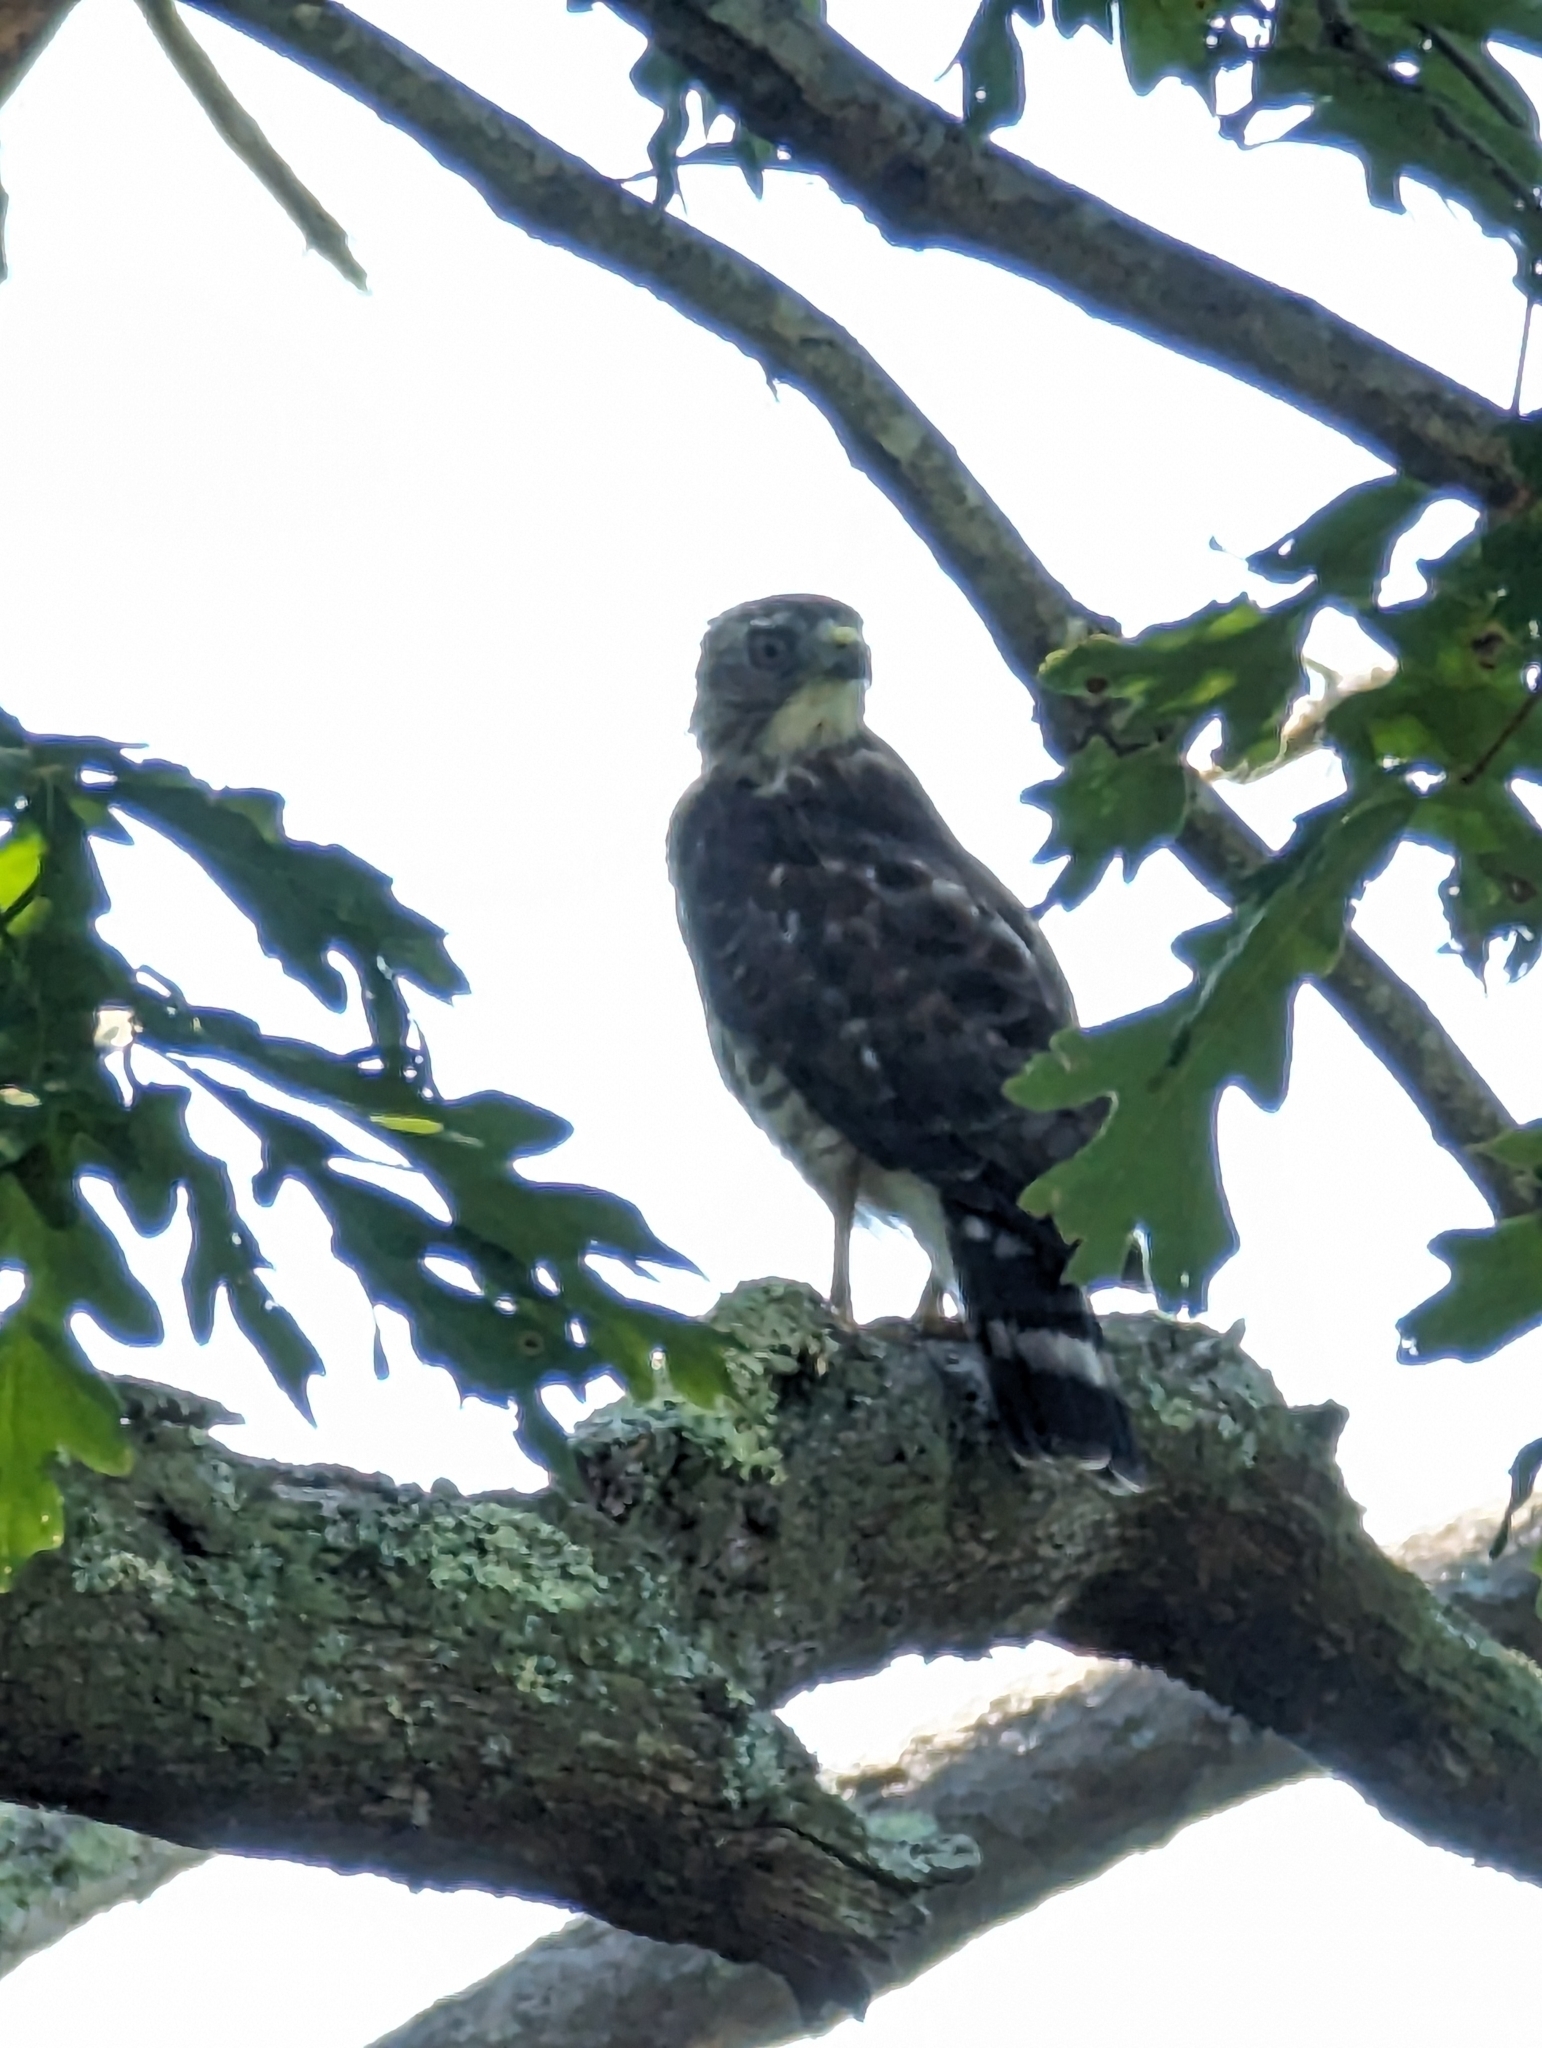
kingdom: Animalia
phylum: Chordata
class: Aves
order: Accipitriformes
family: Accipitridae
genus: Buteo
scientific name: Buteo platypterus
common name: Broad-winged hawk
